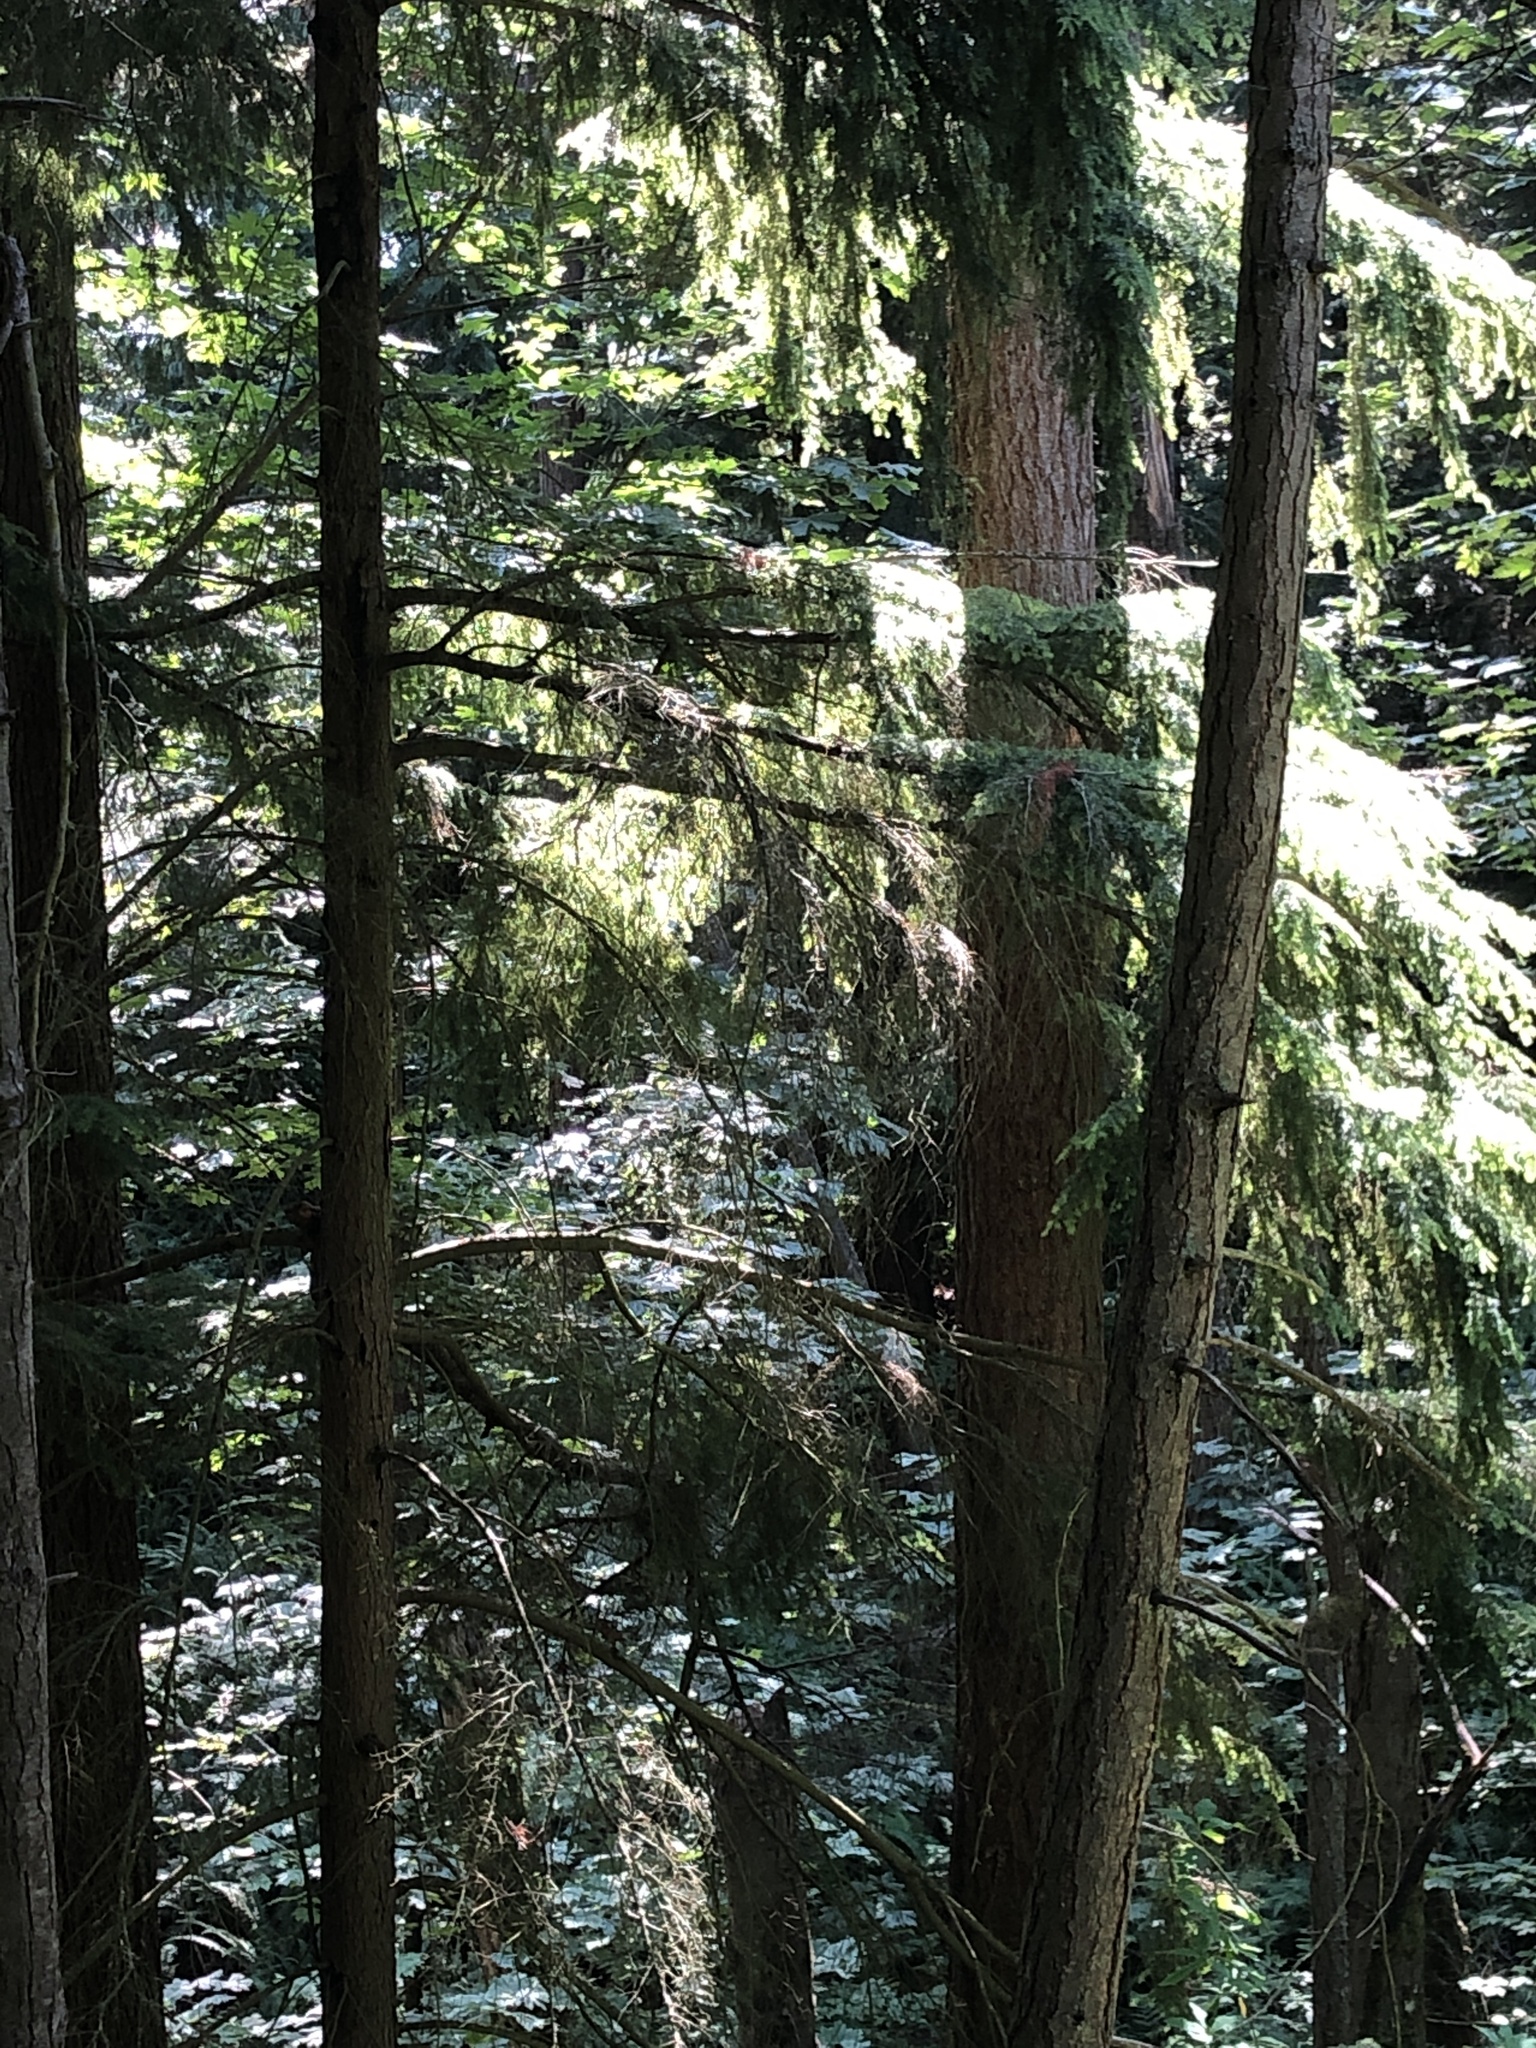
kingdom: Plantae
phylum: Tracheophyta
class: Pinopsida
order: Pinales
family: Pinaceae
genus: Tsuga
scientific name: Tsuga heterophylla
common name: Western hemlock
